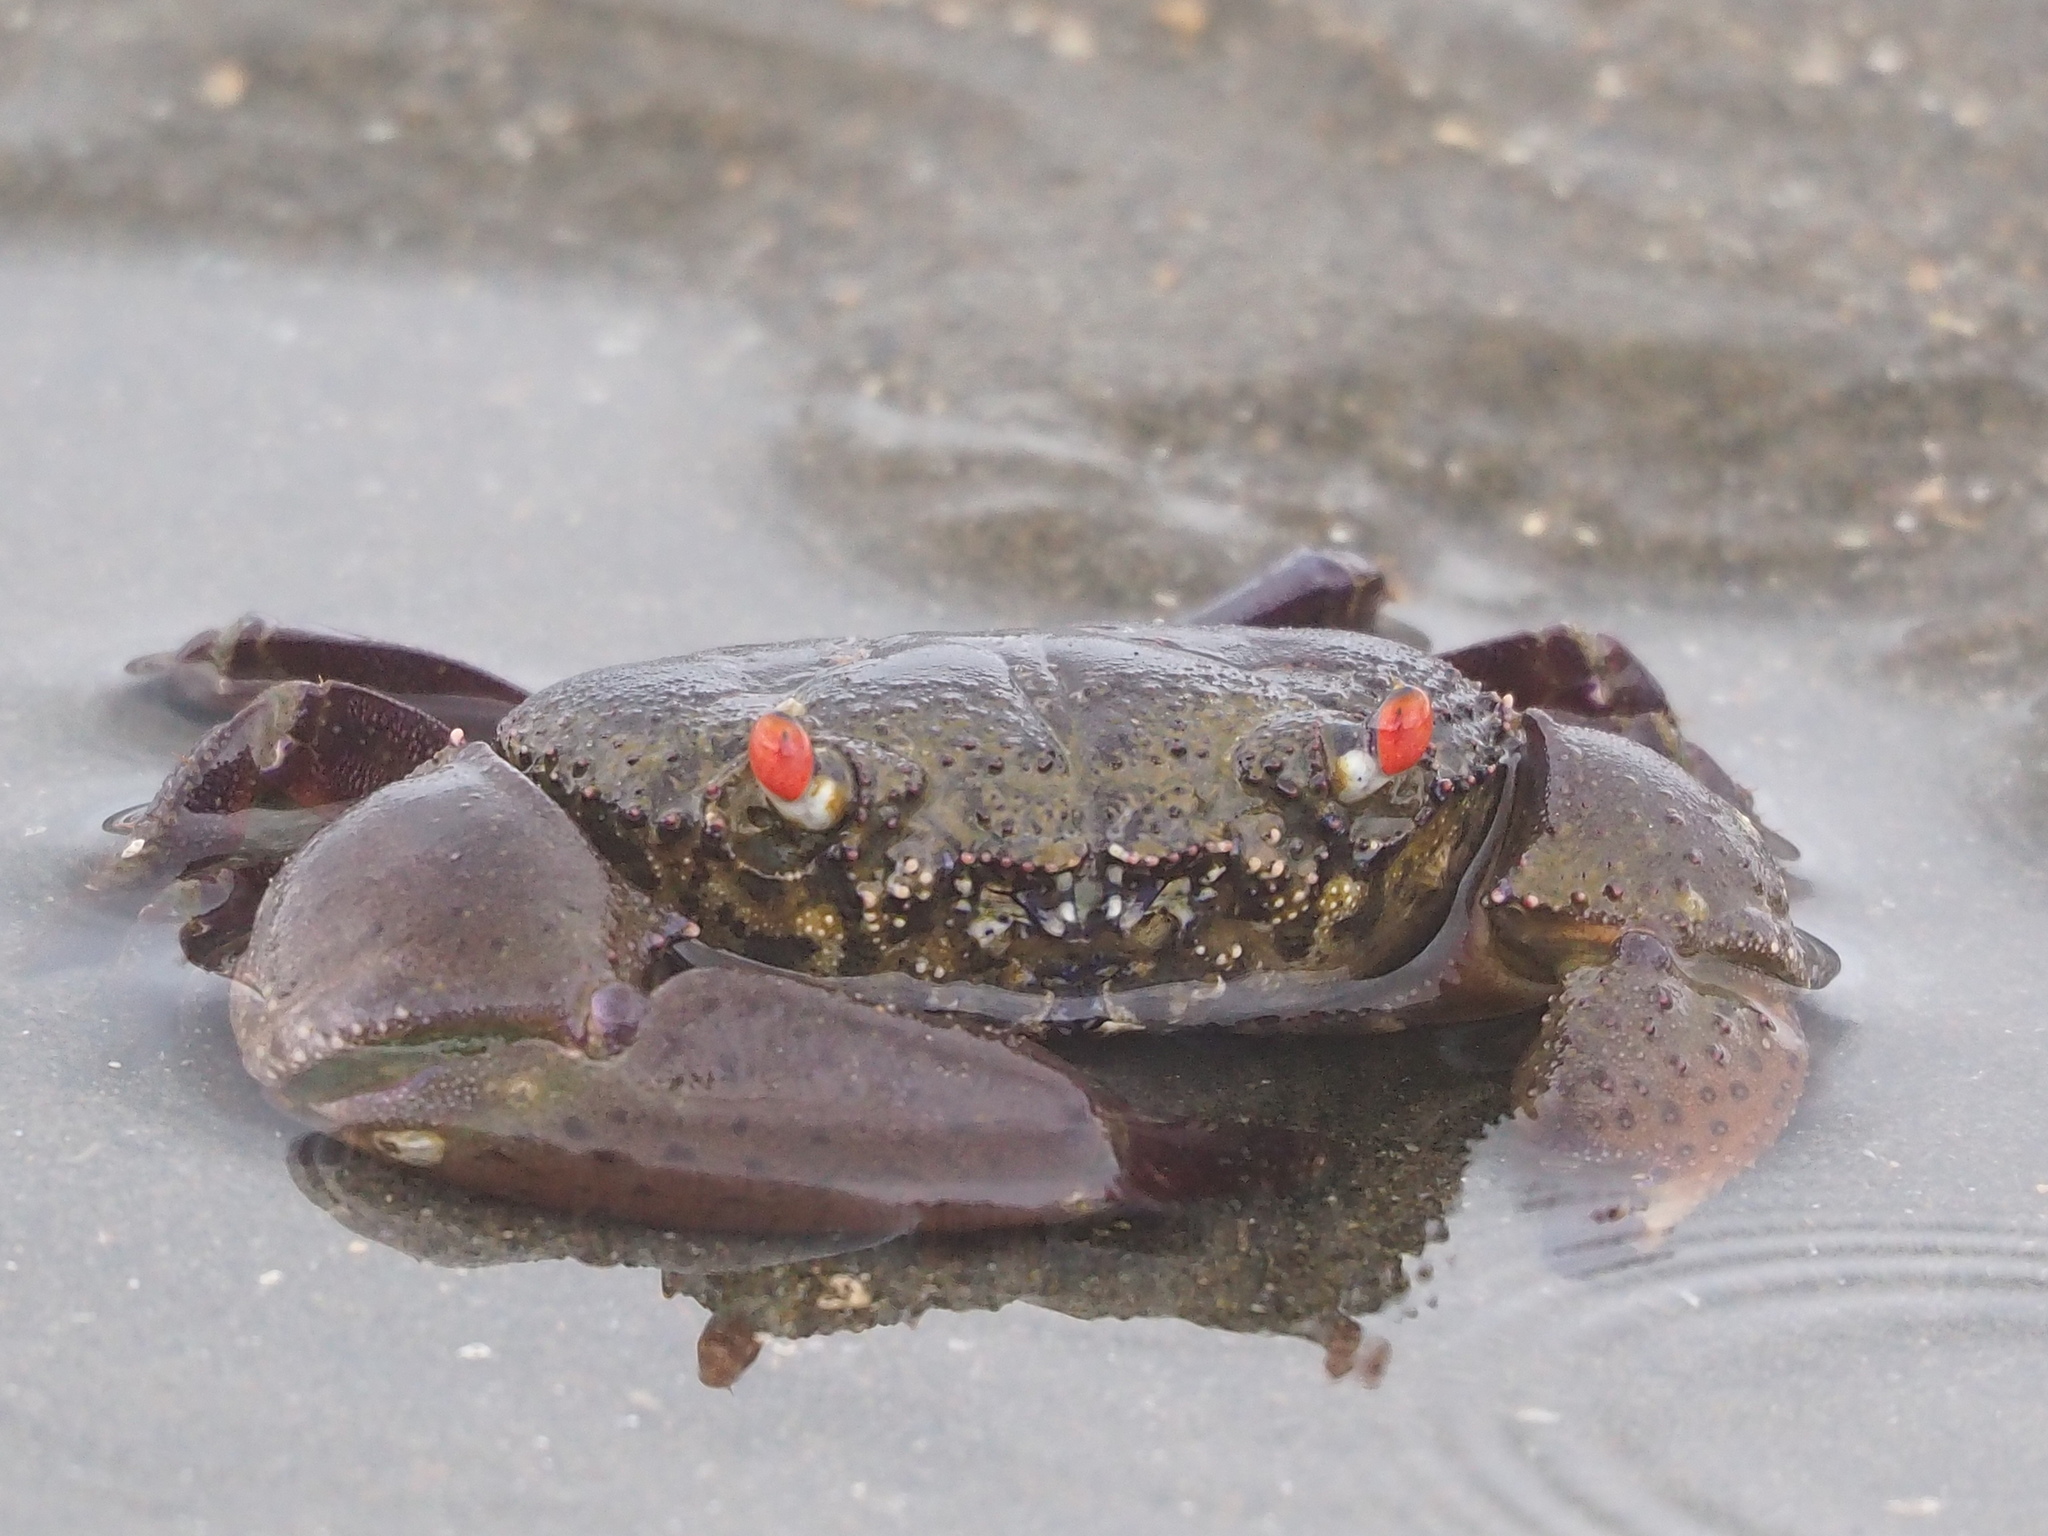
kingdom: Animalia
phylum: Arthropoda
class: Malacostraca
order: Decapoda
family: Eriphiidae
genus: Eriphia
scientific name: Eriphia ferox
